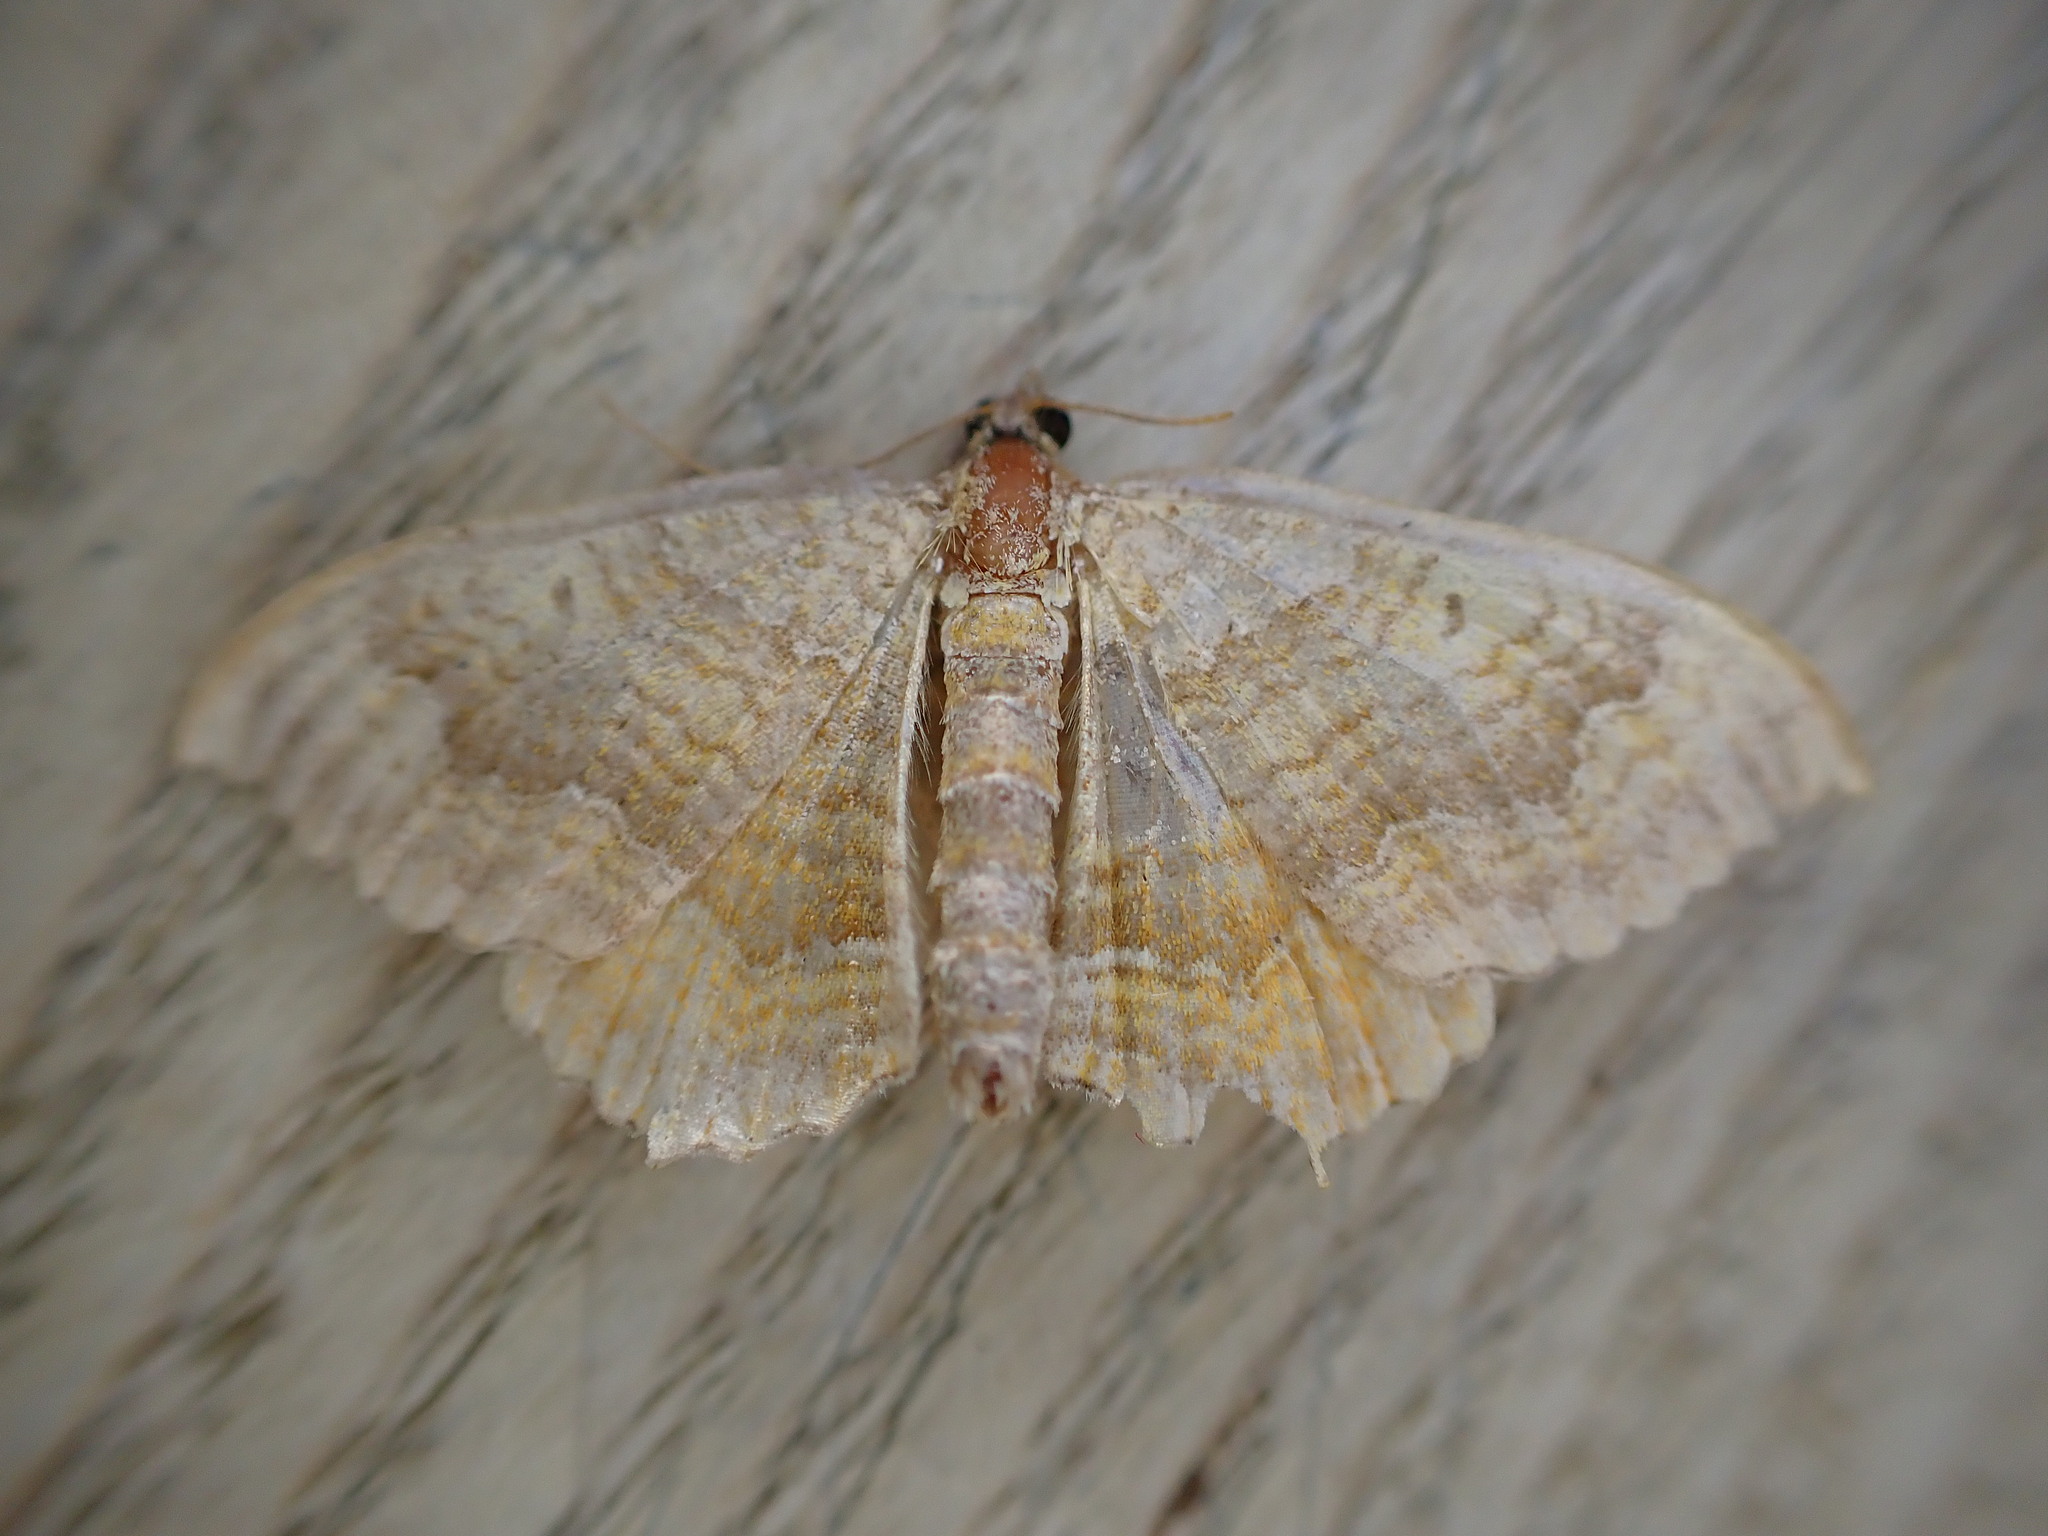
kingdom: Animalia
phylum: Arthropoda
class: Insecta
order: Lepidoptera
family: Geometridae
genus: Camptogramma
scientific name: Camptogramma bilineata
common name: Yellow shell
